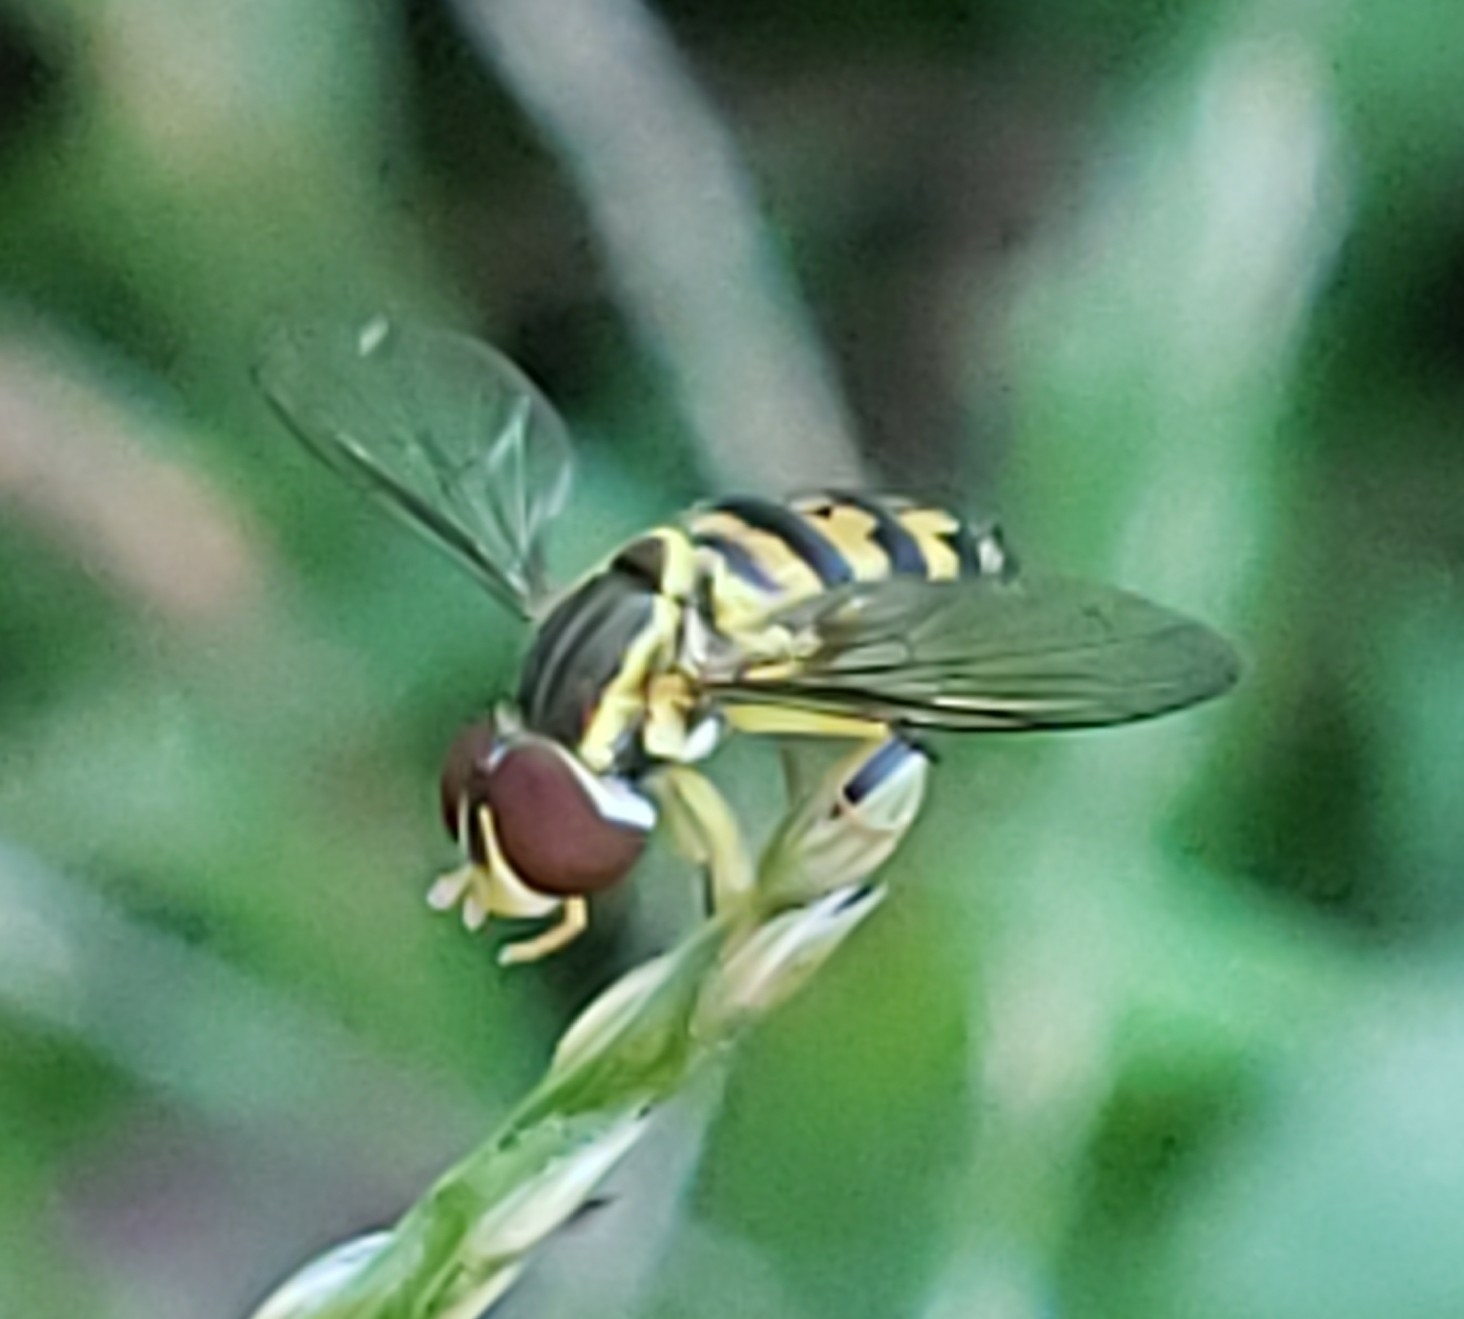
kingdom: Animalia
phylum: Arthropoda
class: Insecta
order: Diptera
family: Syrphidae
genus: Toxomerus
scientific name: Toxomerus geminatus
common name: Eastern calligrapher
